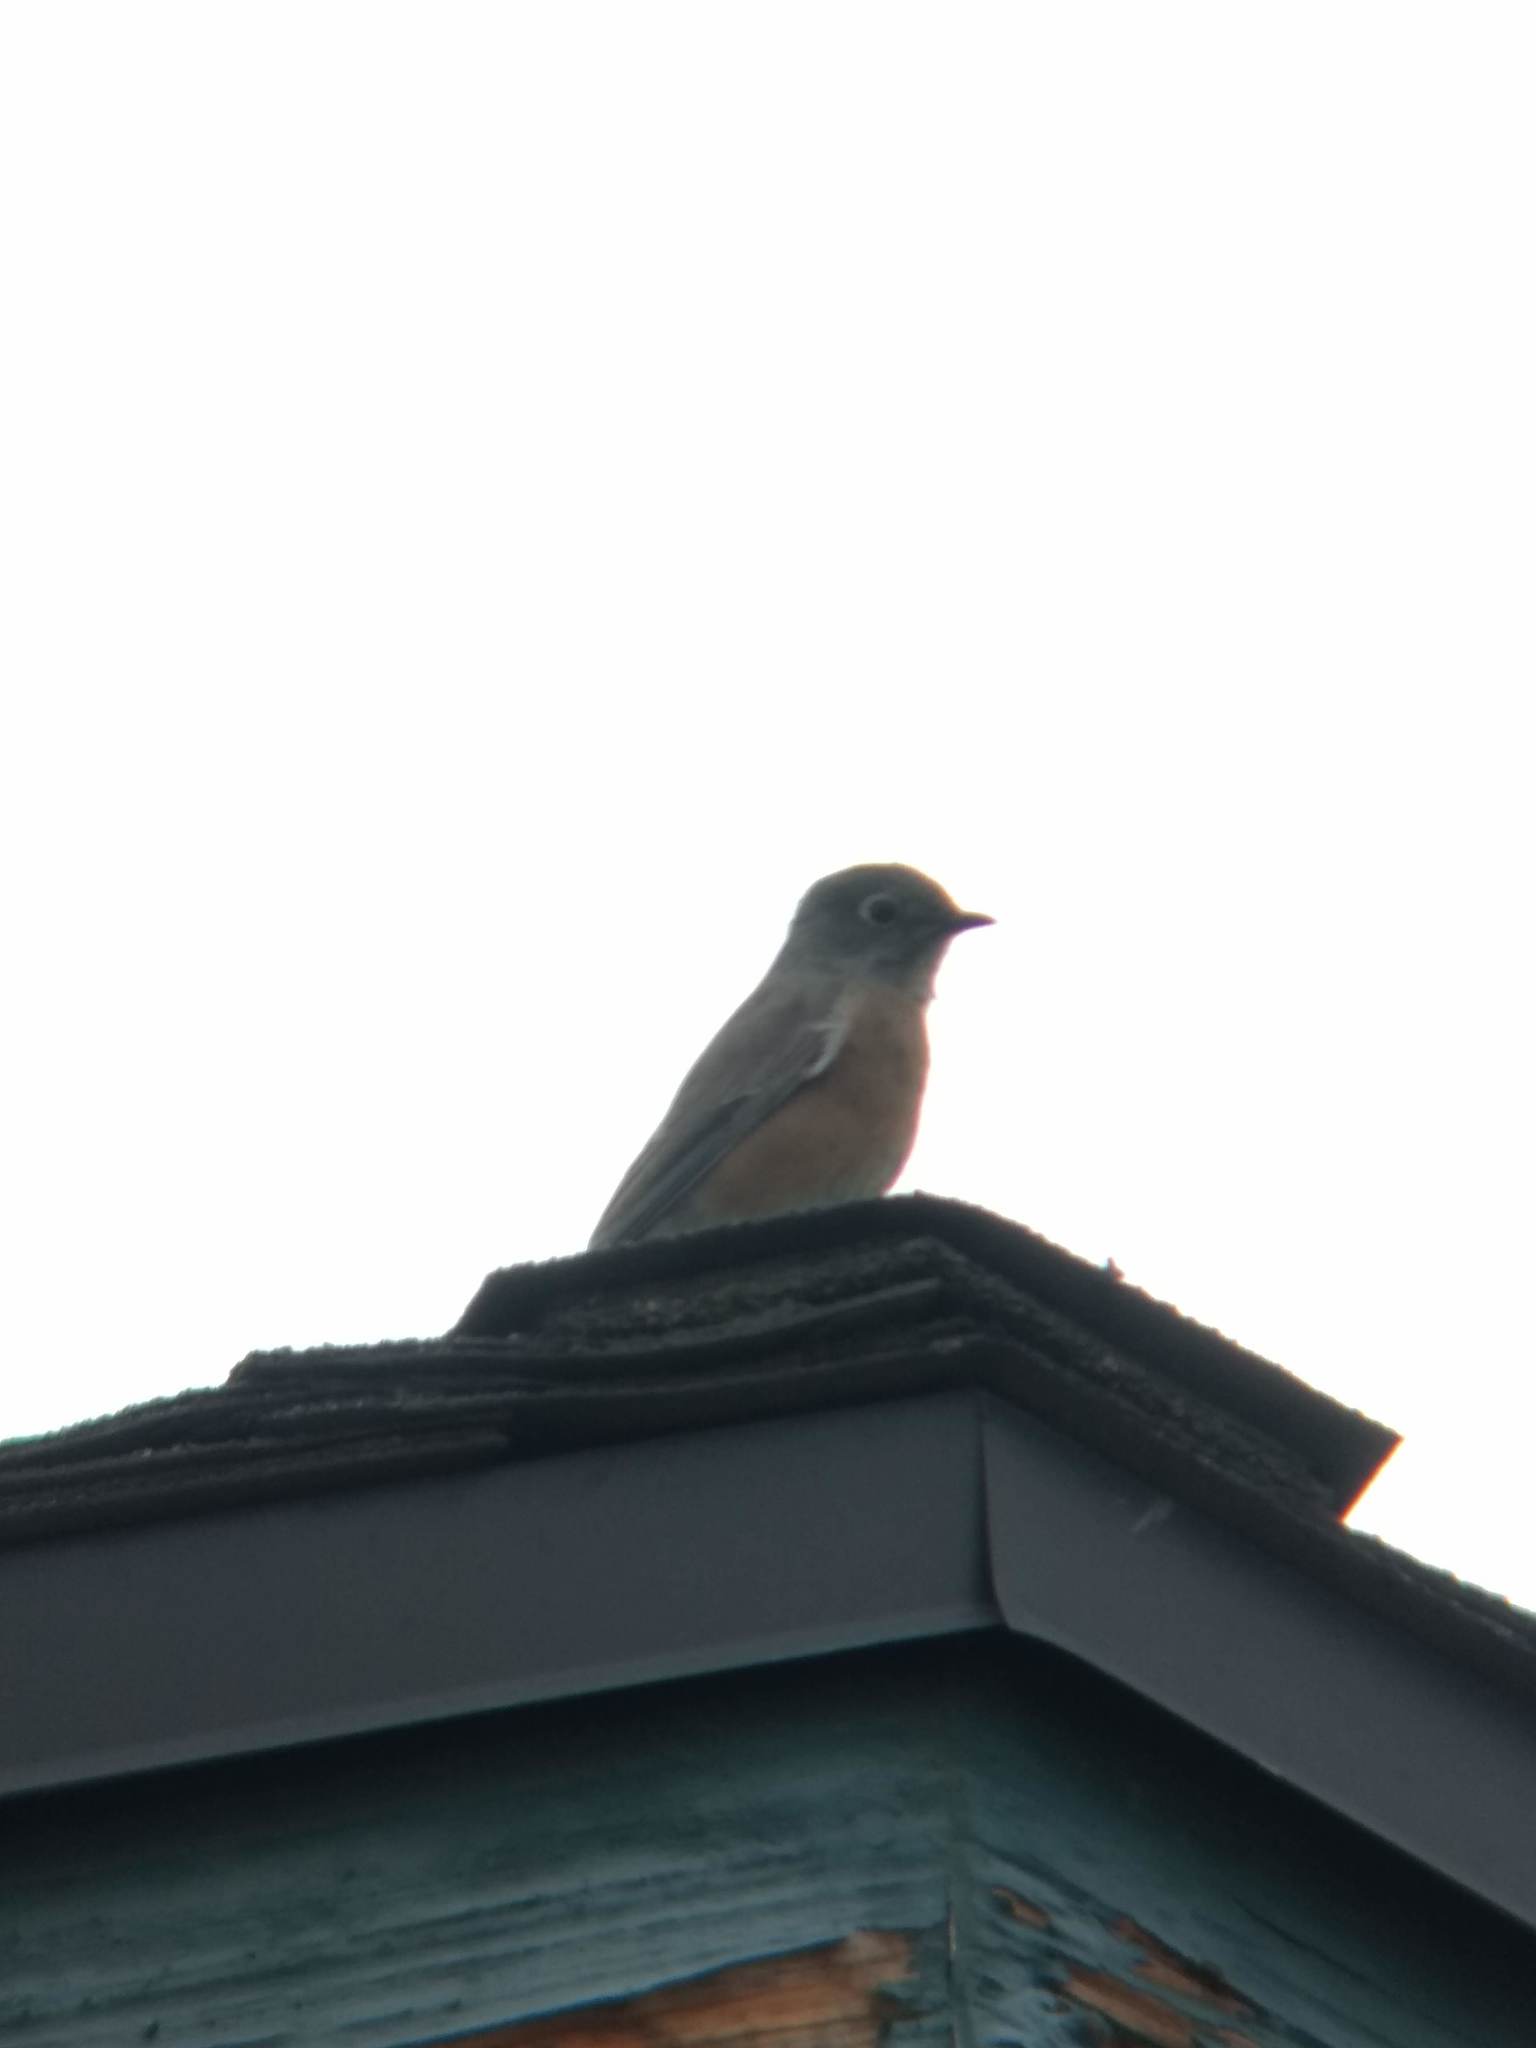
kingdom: Animalia
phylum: Chordata
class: Aves
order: Passeriformes
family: Turdidae
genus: Sialia
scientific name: Sialia mexicana
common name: Western bluebird
